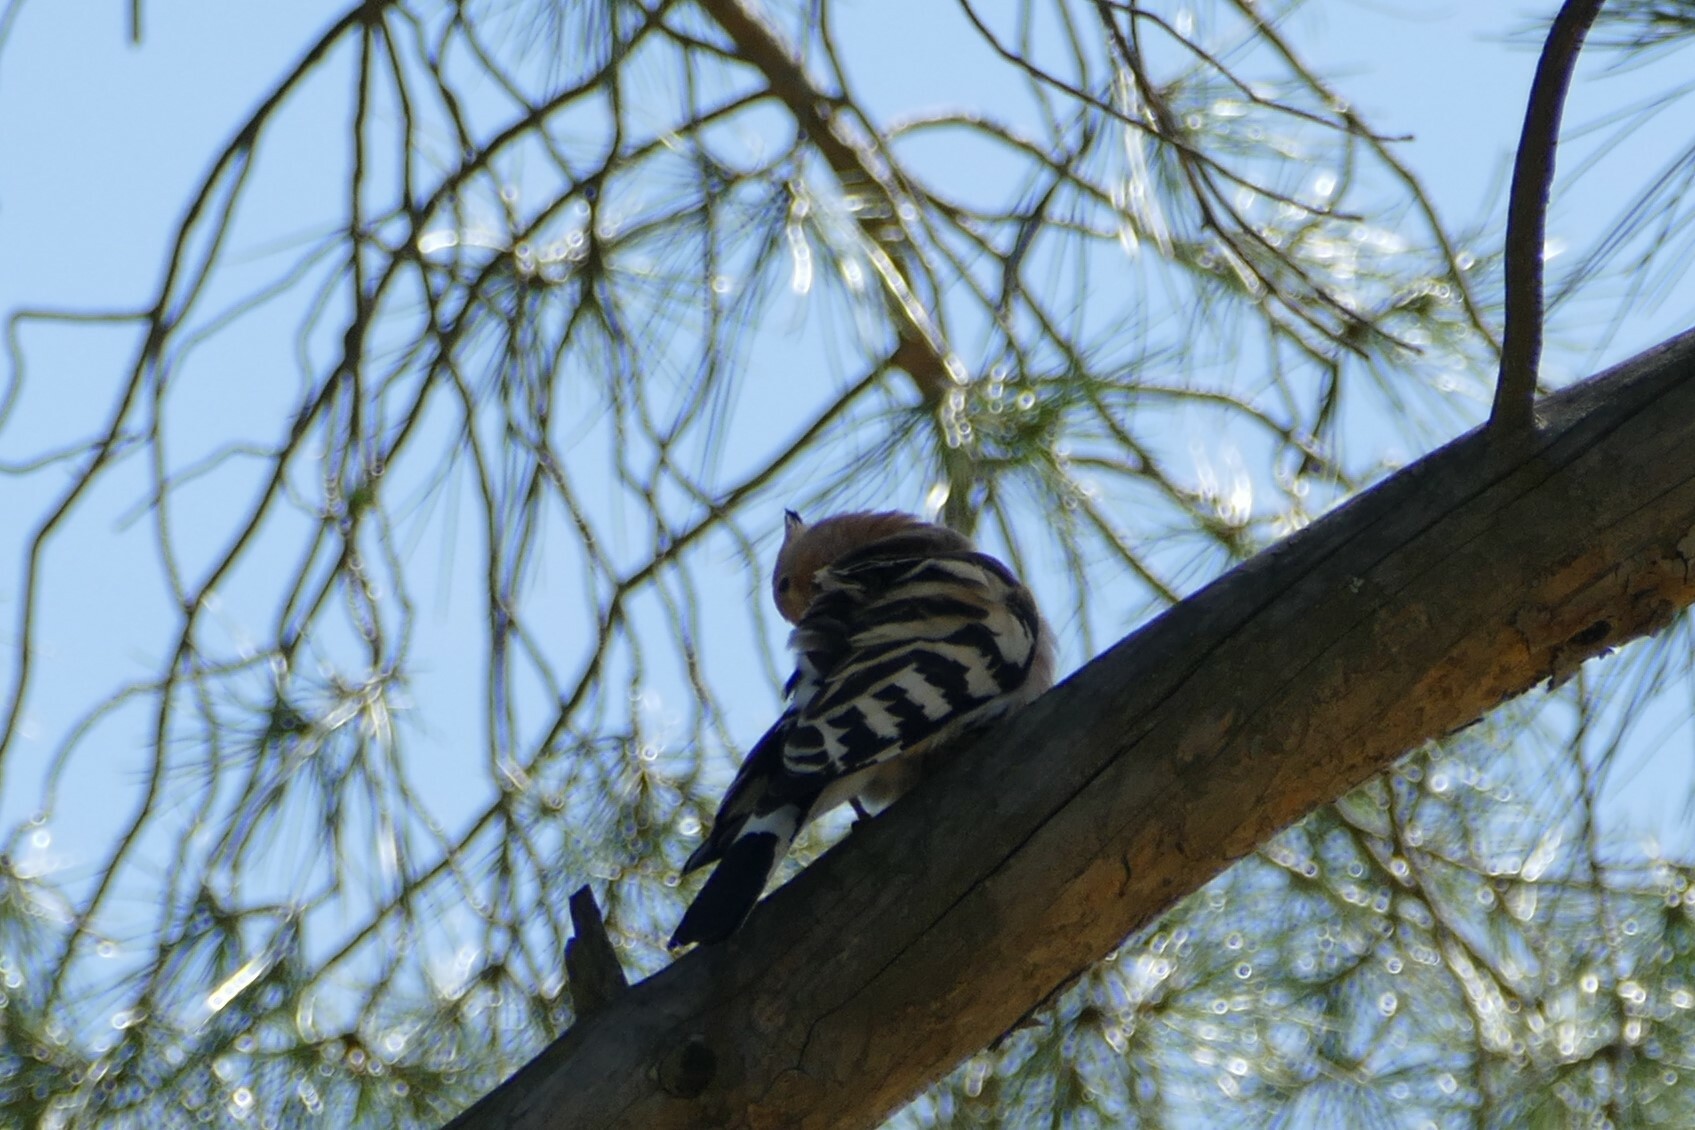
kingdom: Animalia
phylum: Chordata
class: Aves
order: Bucerotiformes
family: Upupidae
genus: Upupa
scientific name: Upupa epops
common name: Eurasian hoopoe
